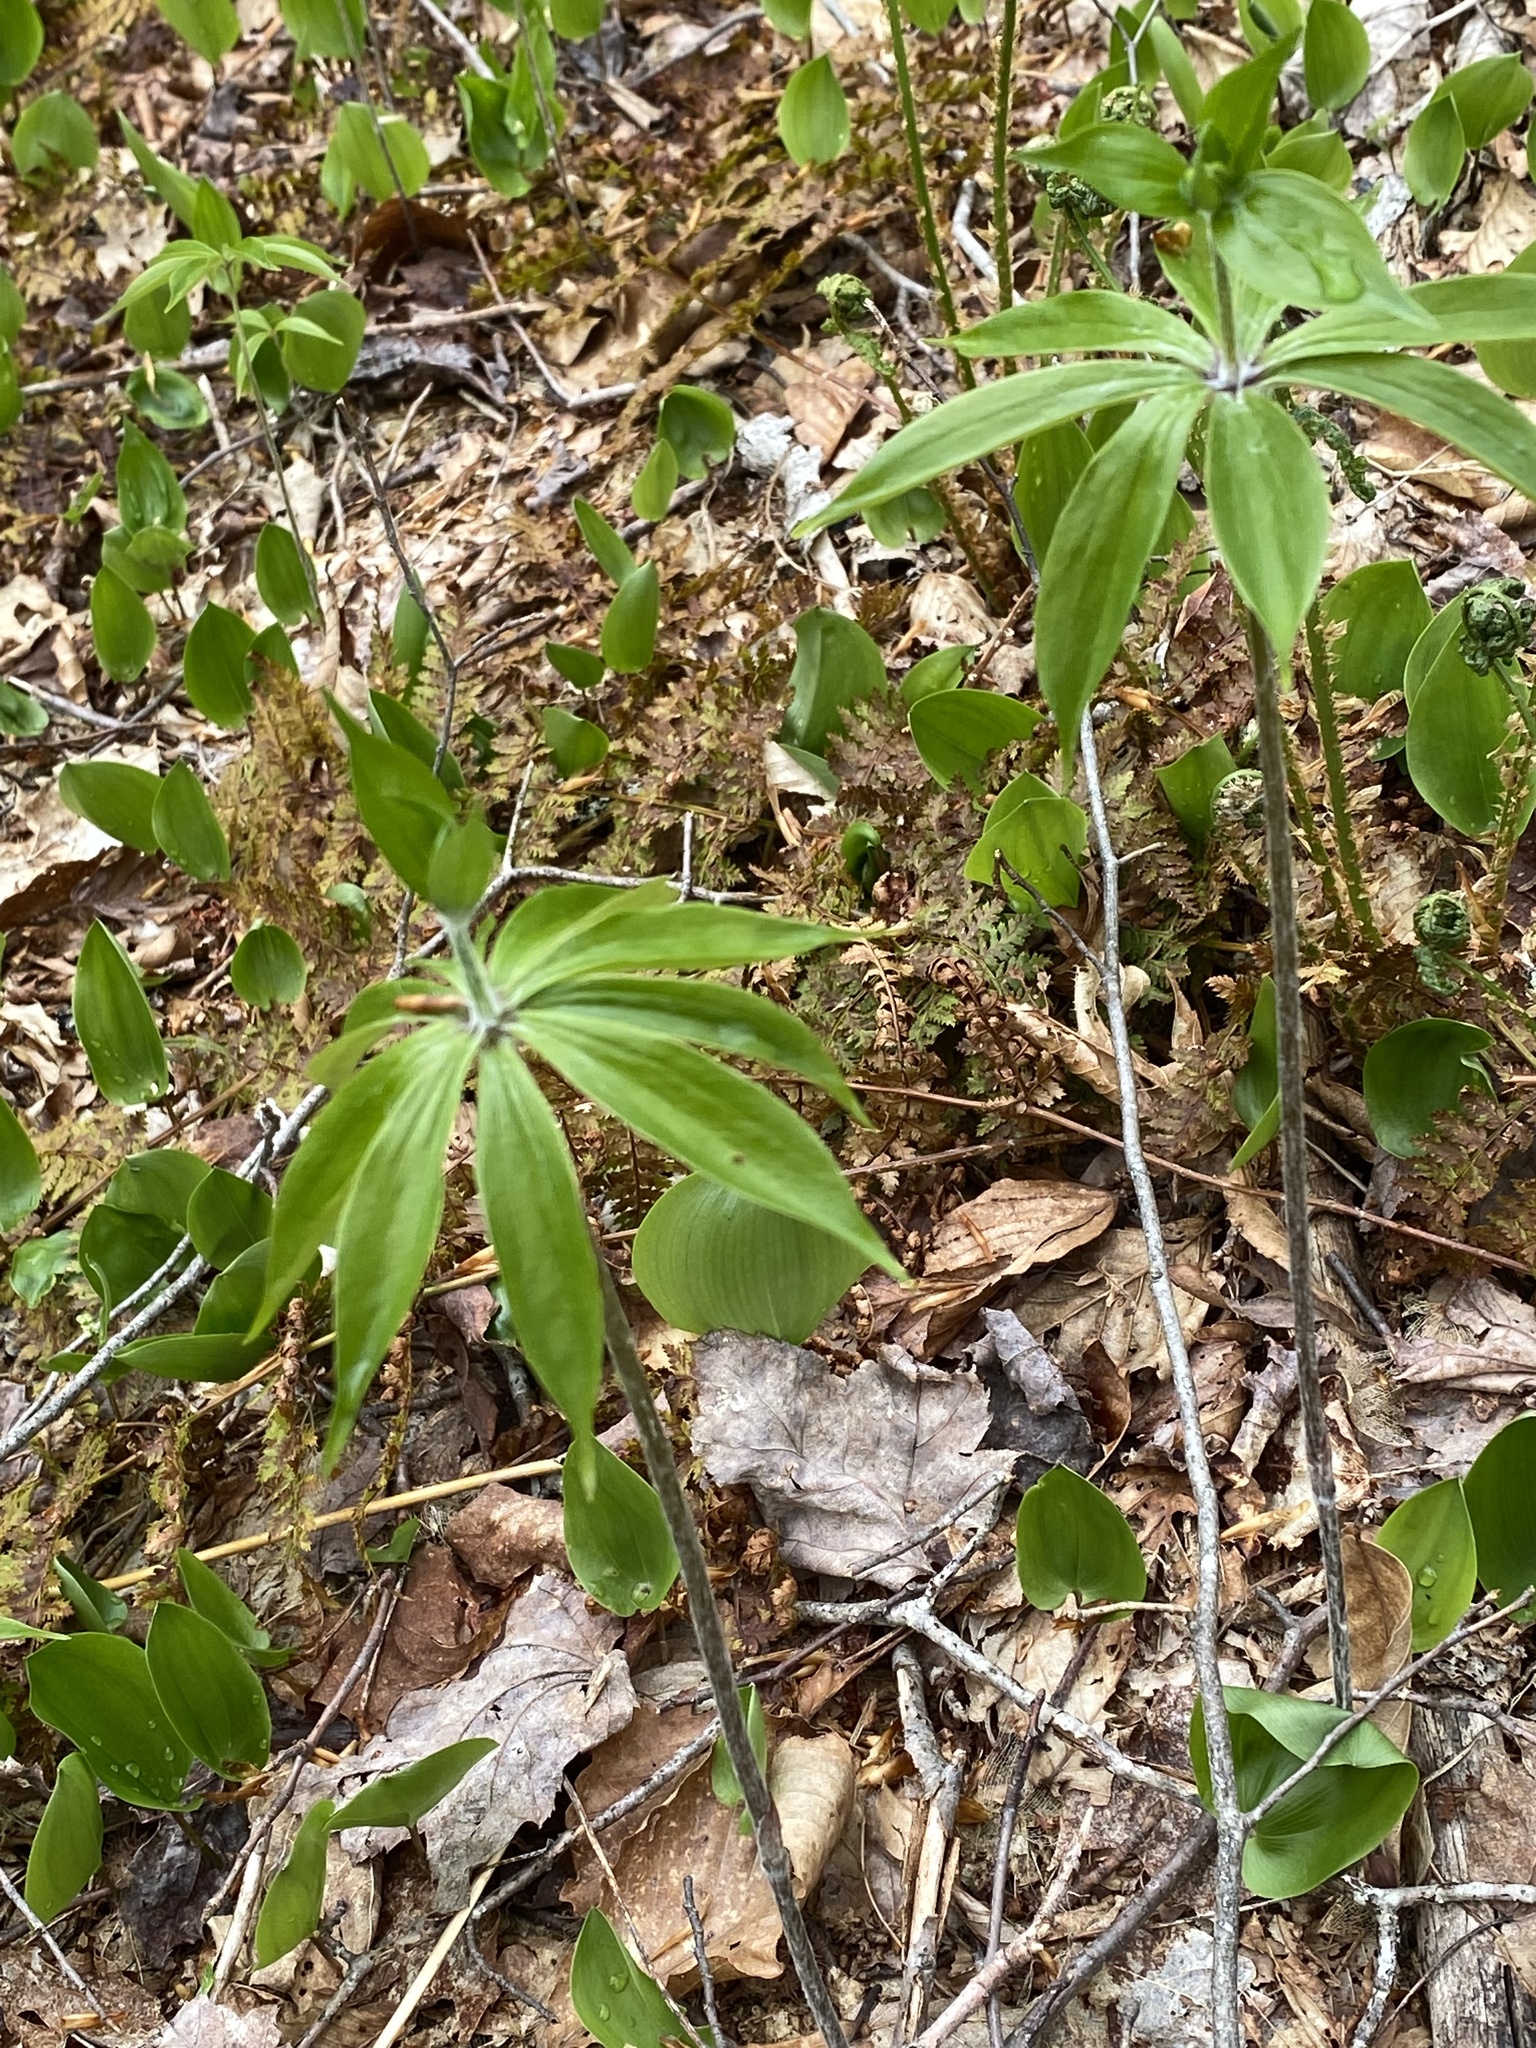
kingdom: Plantae
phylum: Tracheophyta
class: Liliopsida
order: Liliales
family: Liliaceae
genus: Medeola
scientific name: Medeola virginiana
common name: Indian cucumber-root
